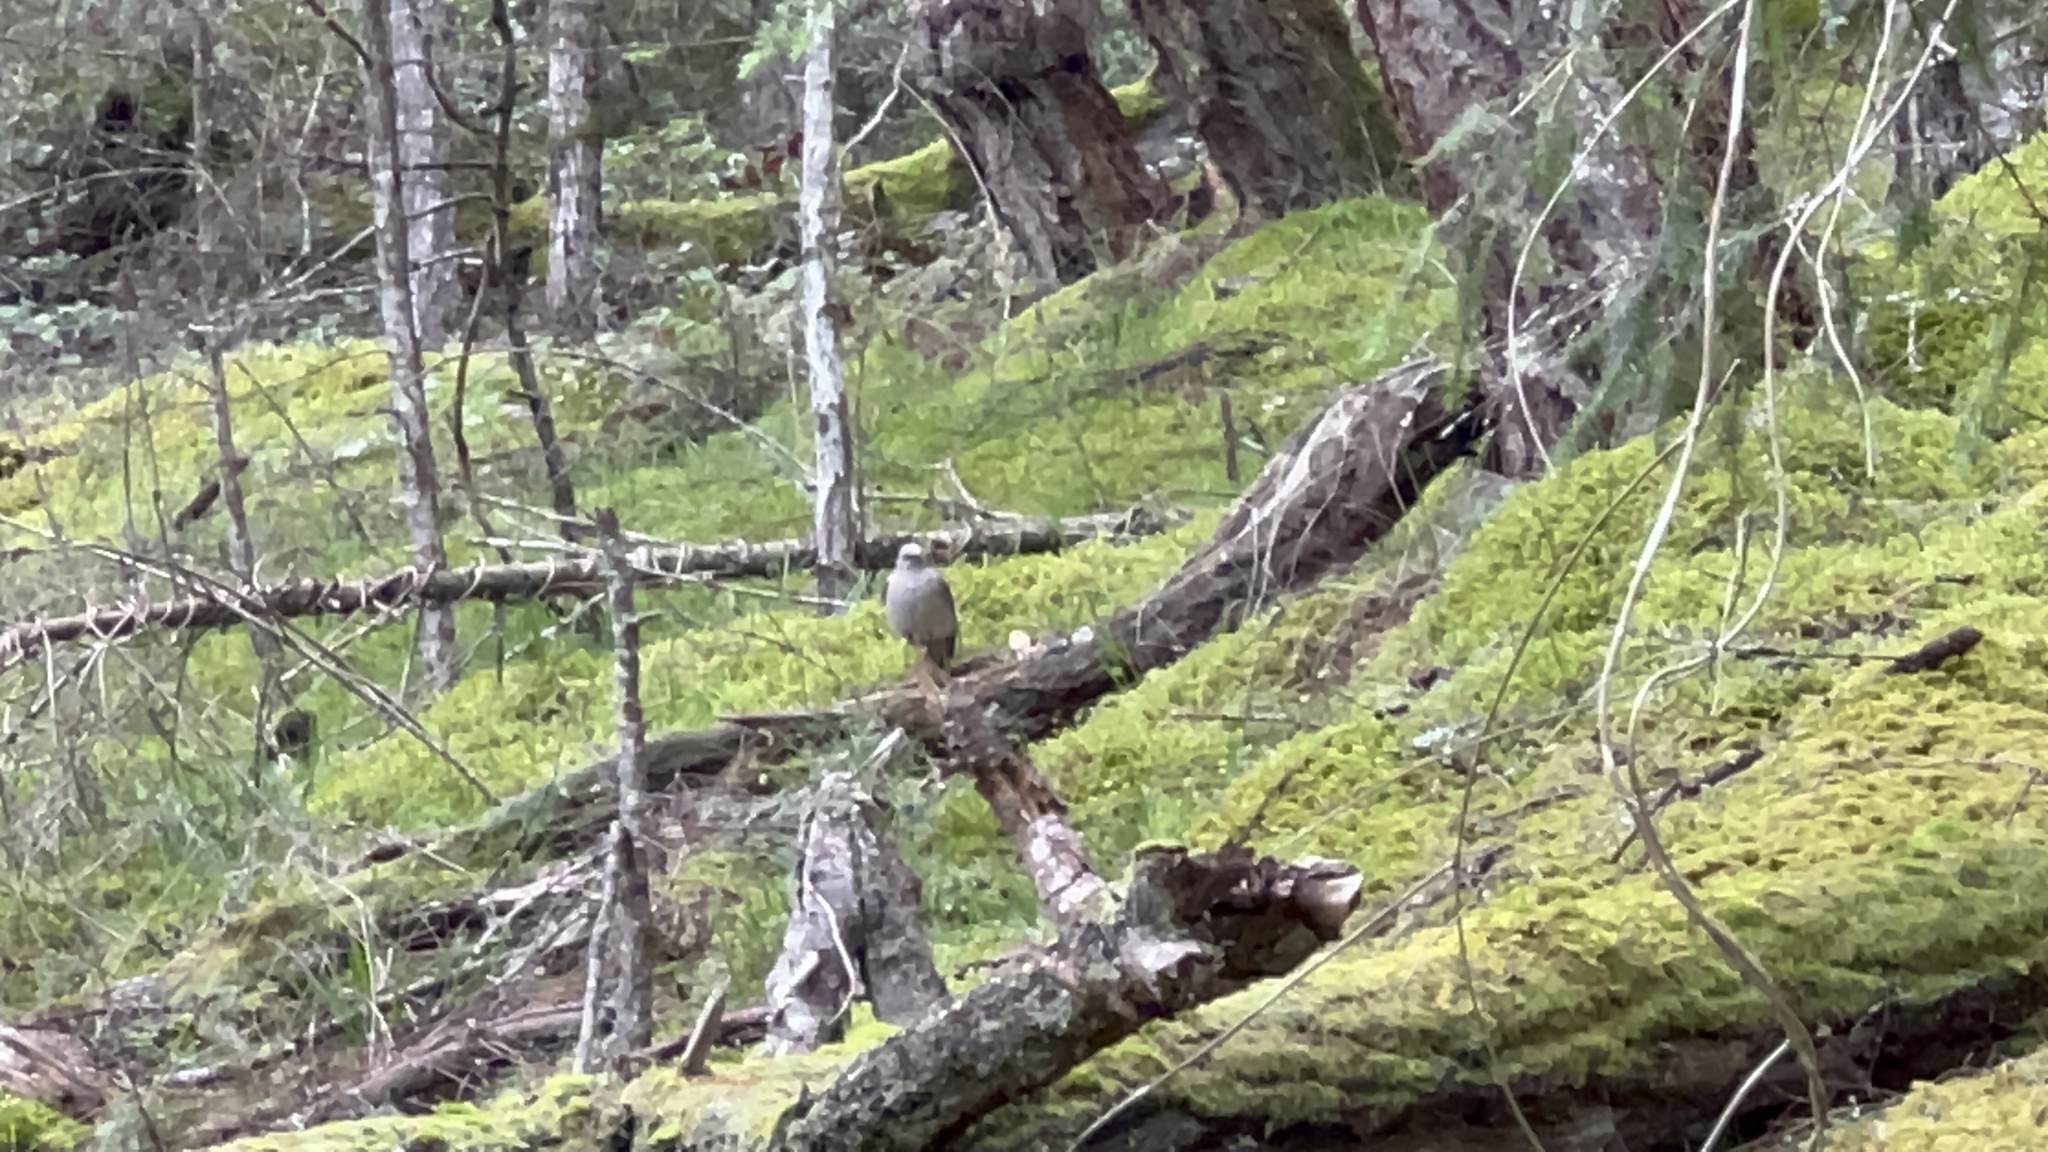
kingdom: Animalia
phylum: Chordata
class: Aves
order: Passeriformes
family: Turdidae
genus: Myadestes
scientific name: Myadestes townsendi
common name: Townsend's solitaire
